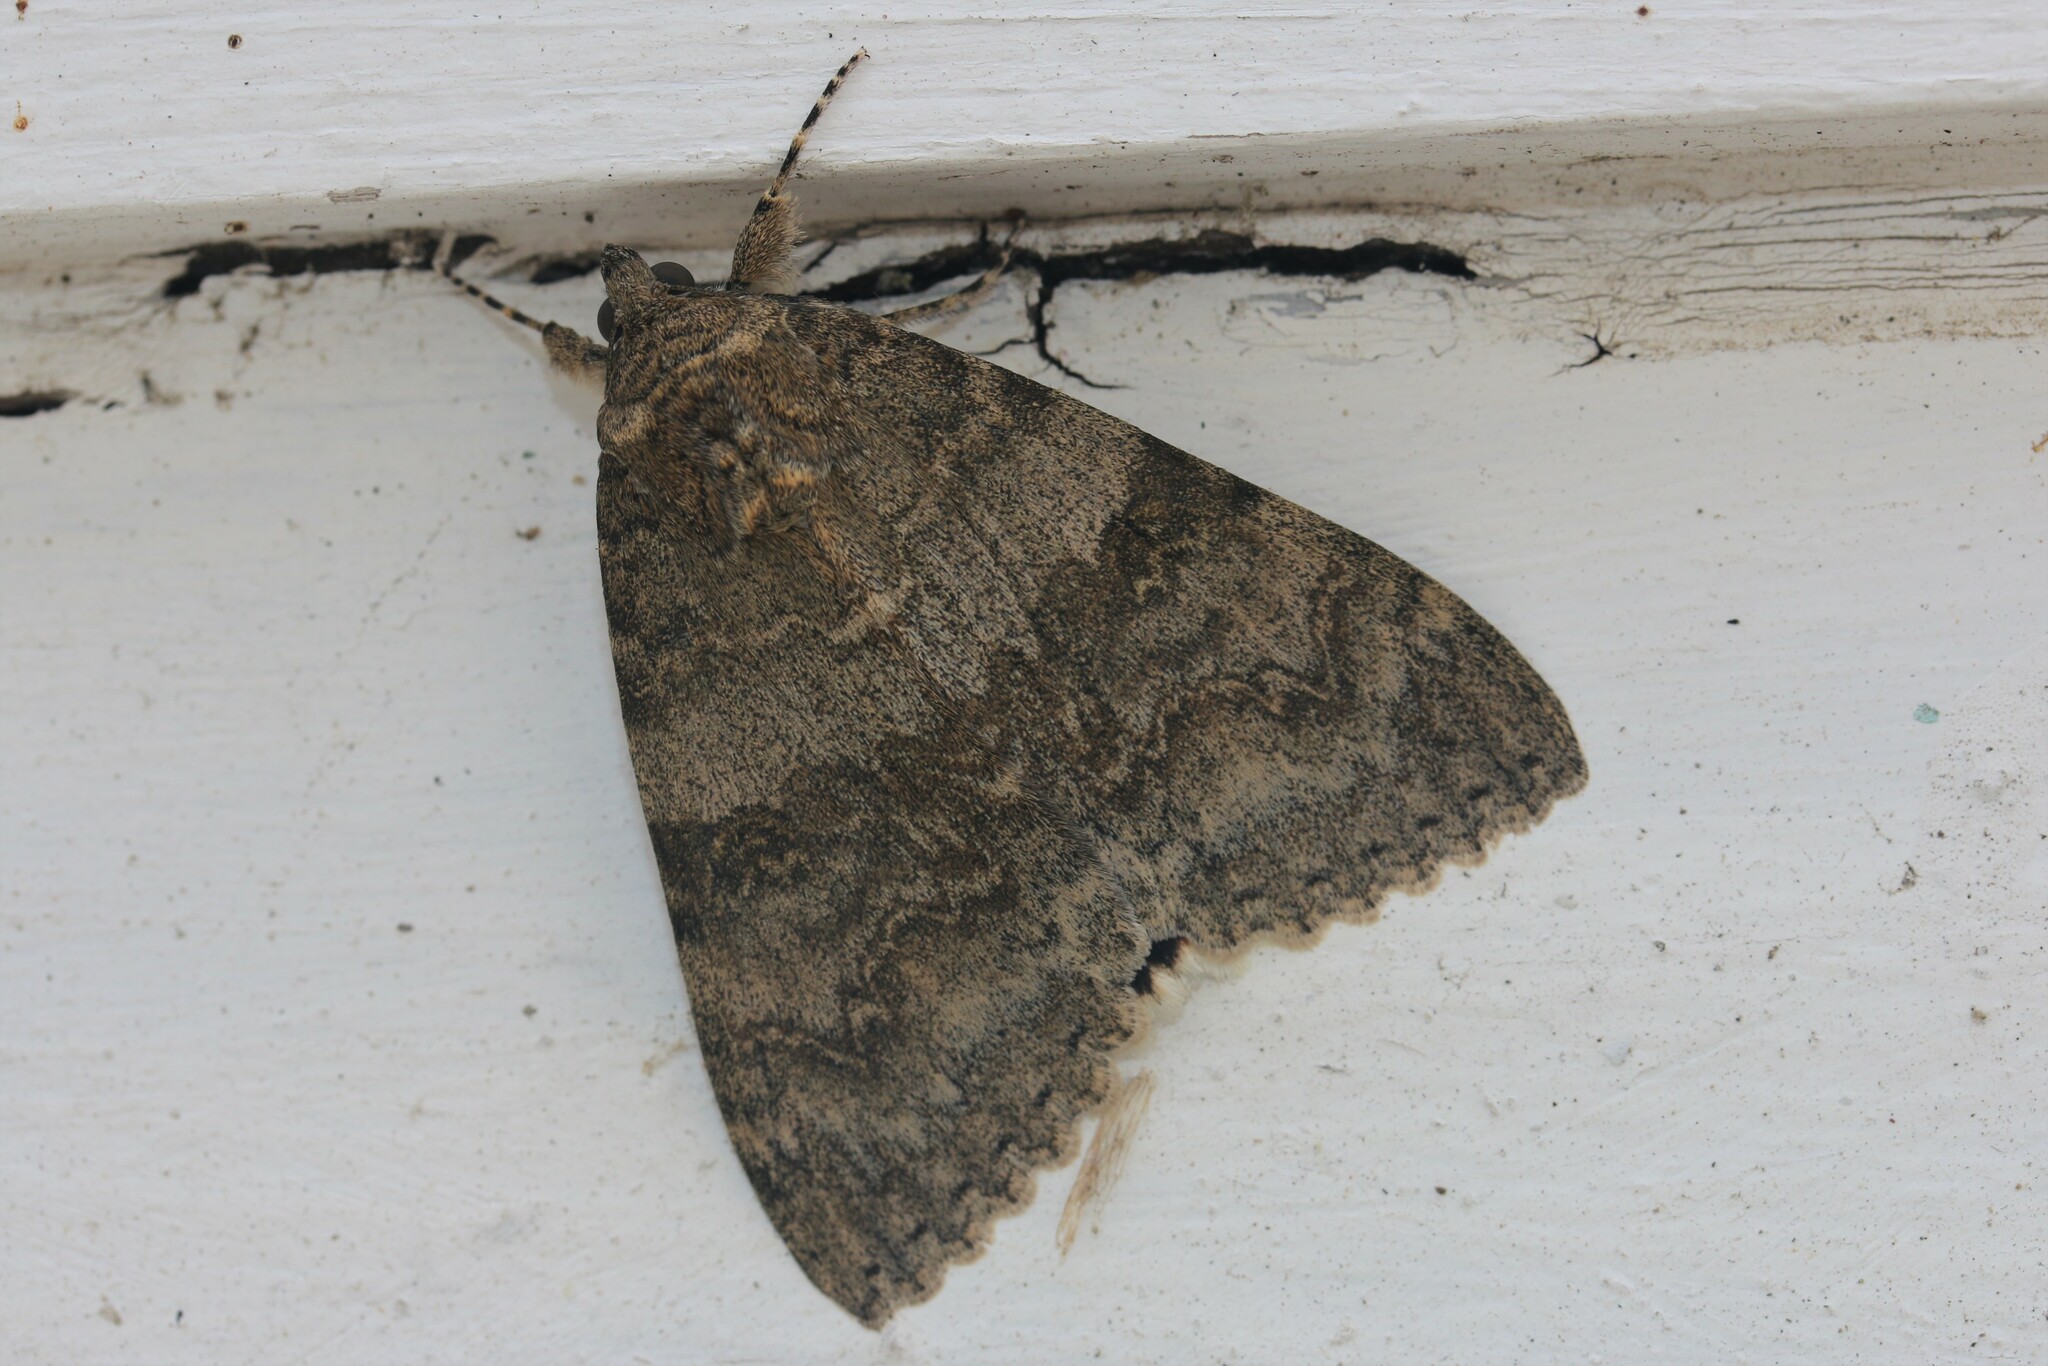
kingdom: Animalia
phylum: Arthropoda
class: Insecta
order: Lepidoptera
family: Erebidae
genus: Catocala
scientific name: Catocala nupta
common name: Red underwing
